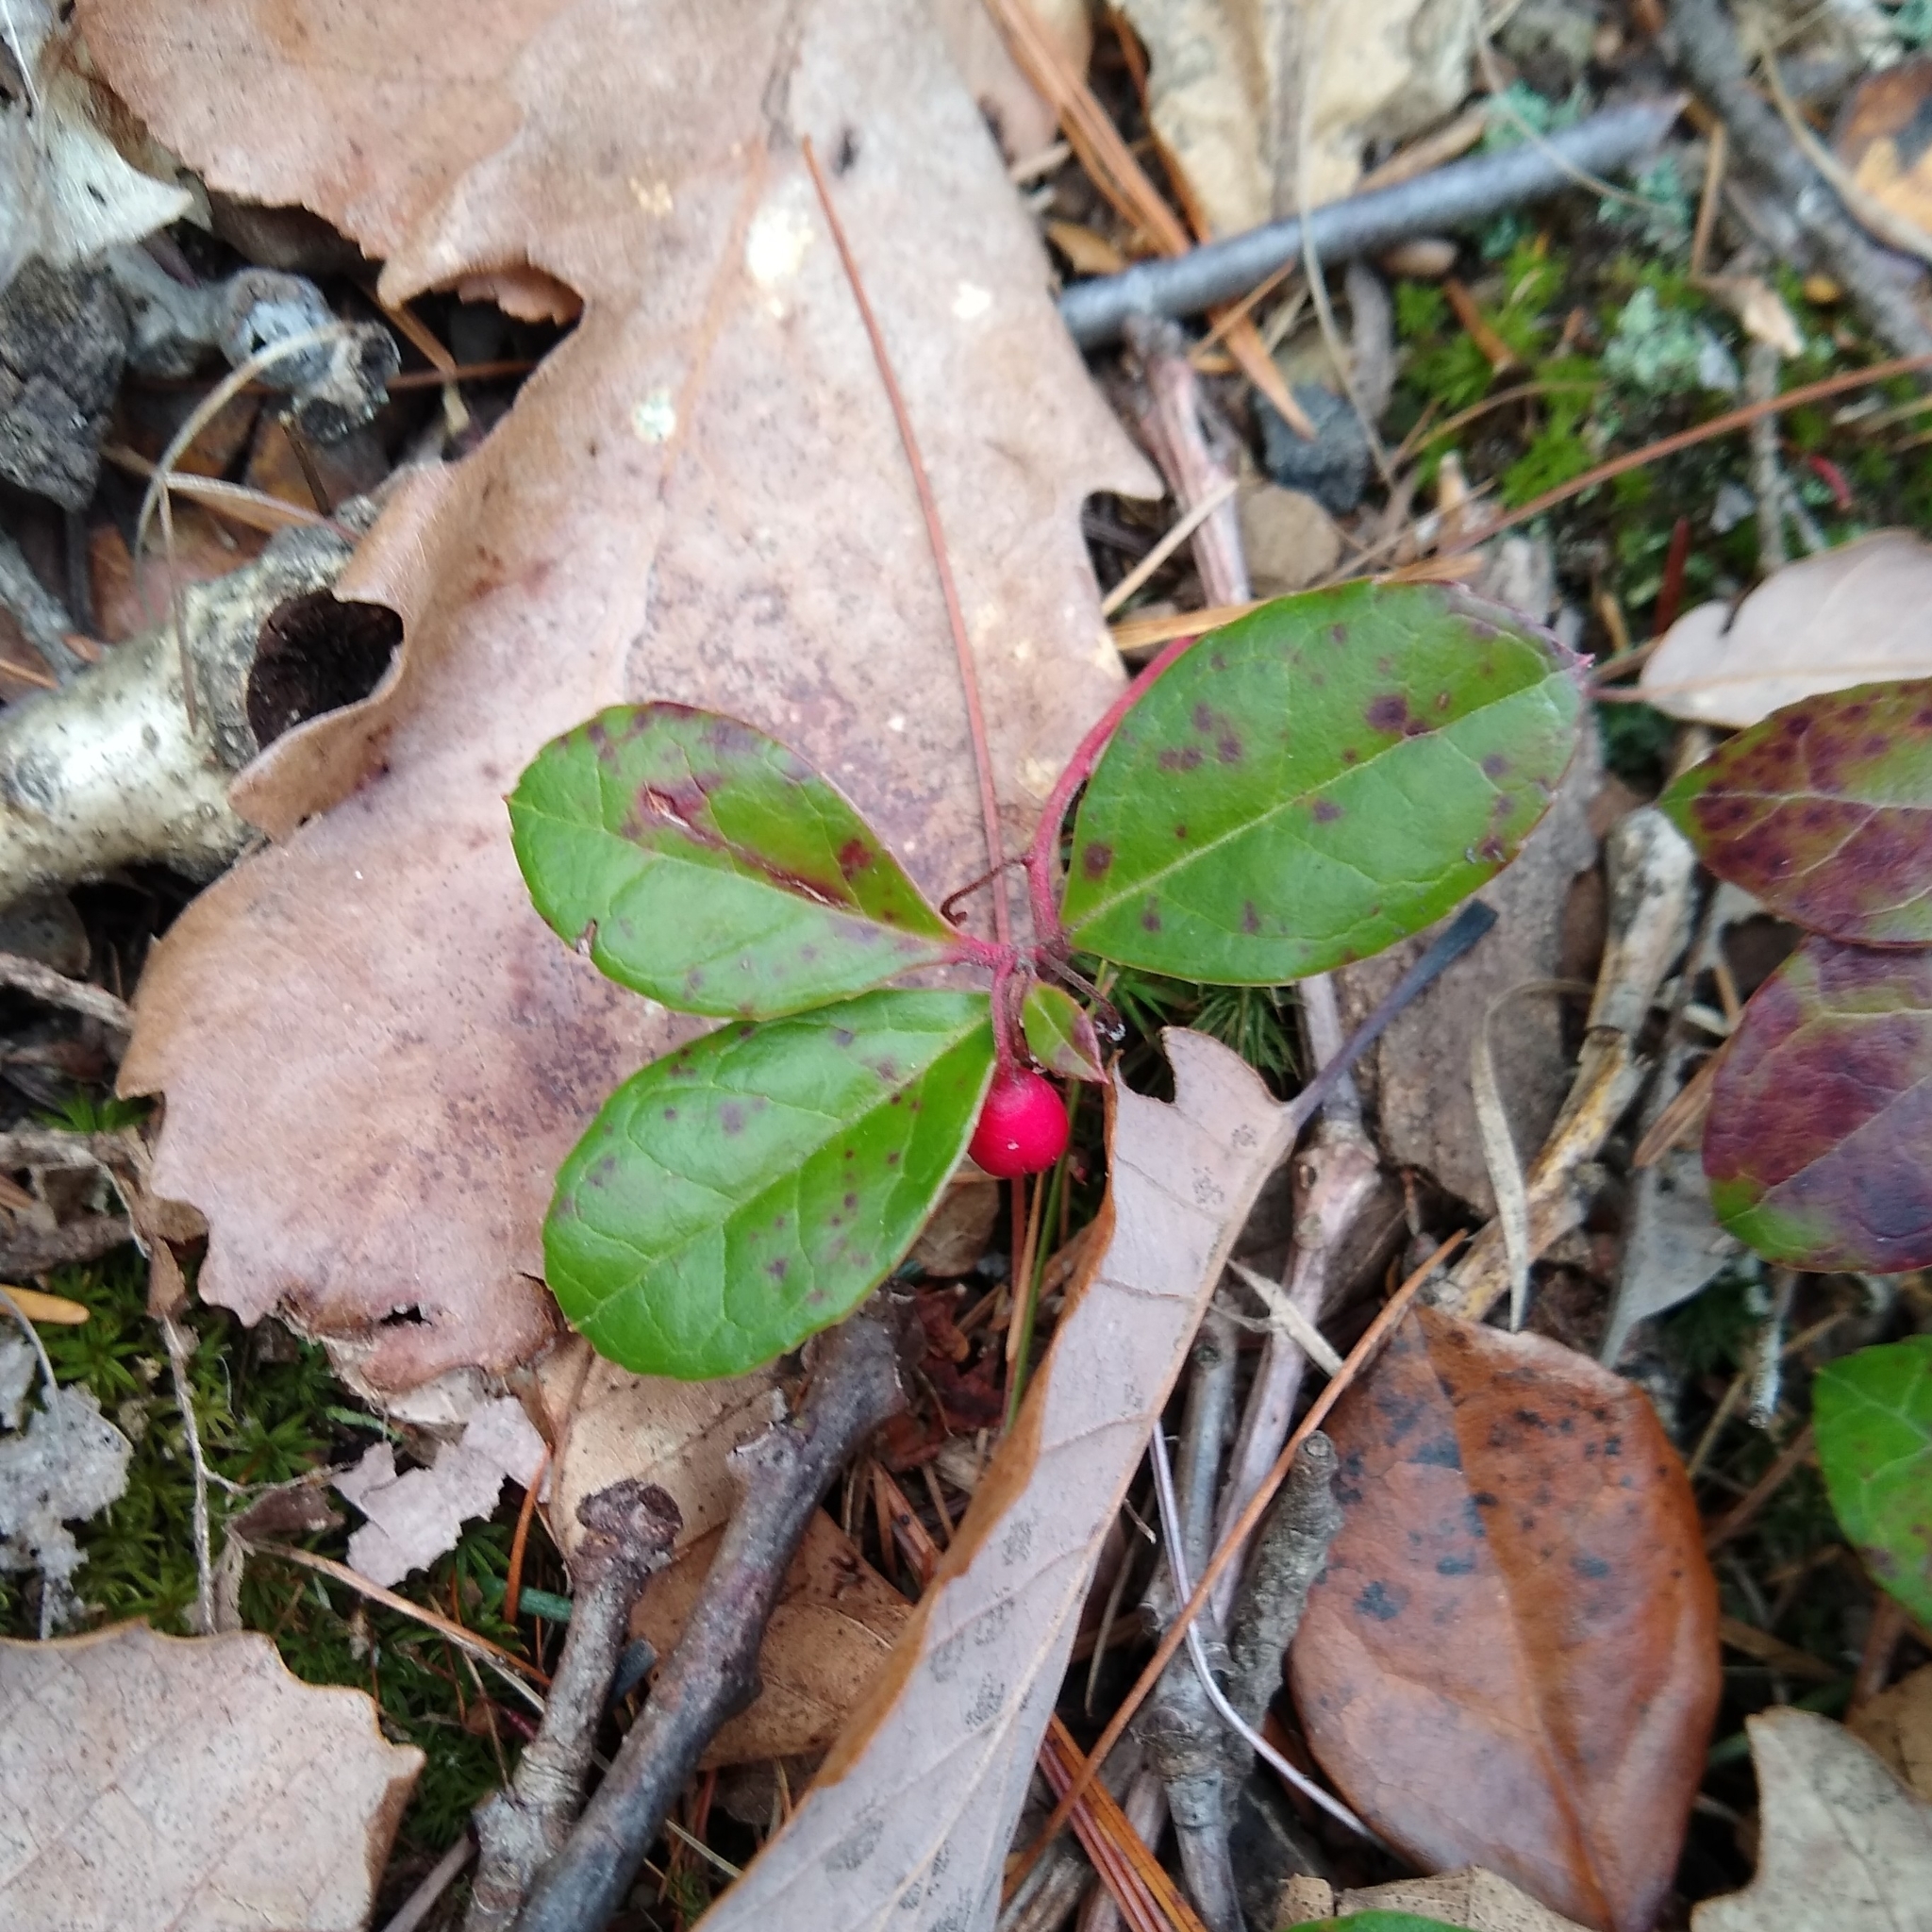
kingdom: Plantae
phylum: Tracheophyta
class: Magnoliopsida
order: Ericales
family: Ericaceae
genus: Gaultheria
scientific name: Gaultheria procumbens
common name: Checkerberry
